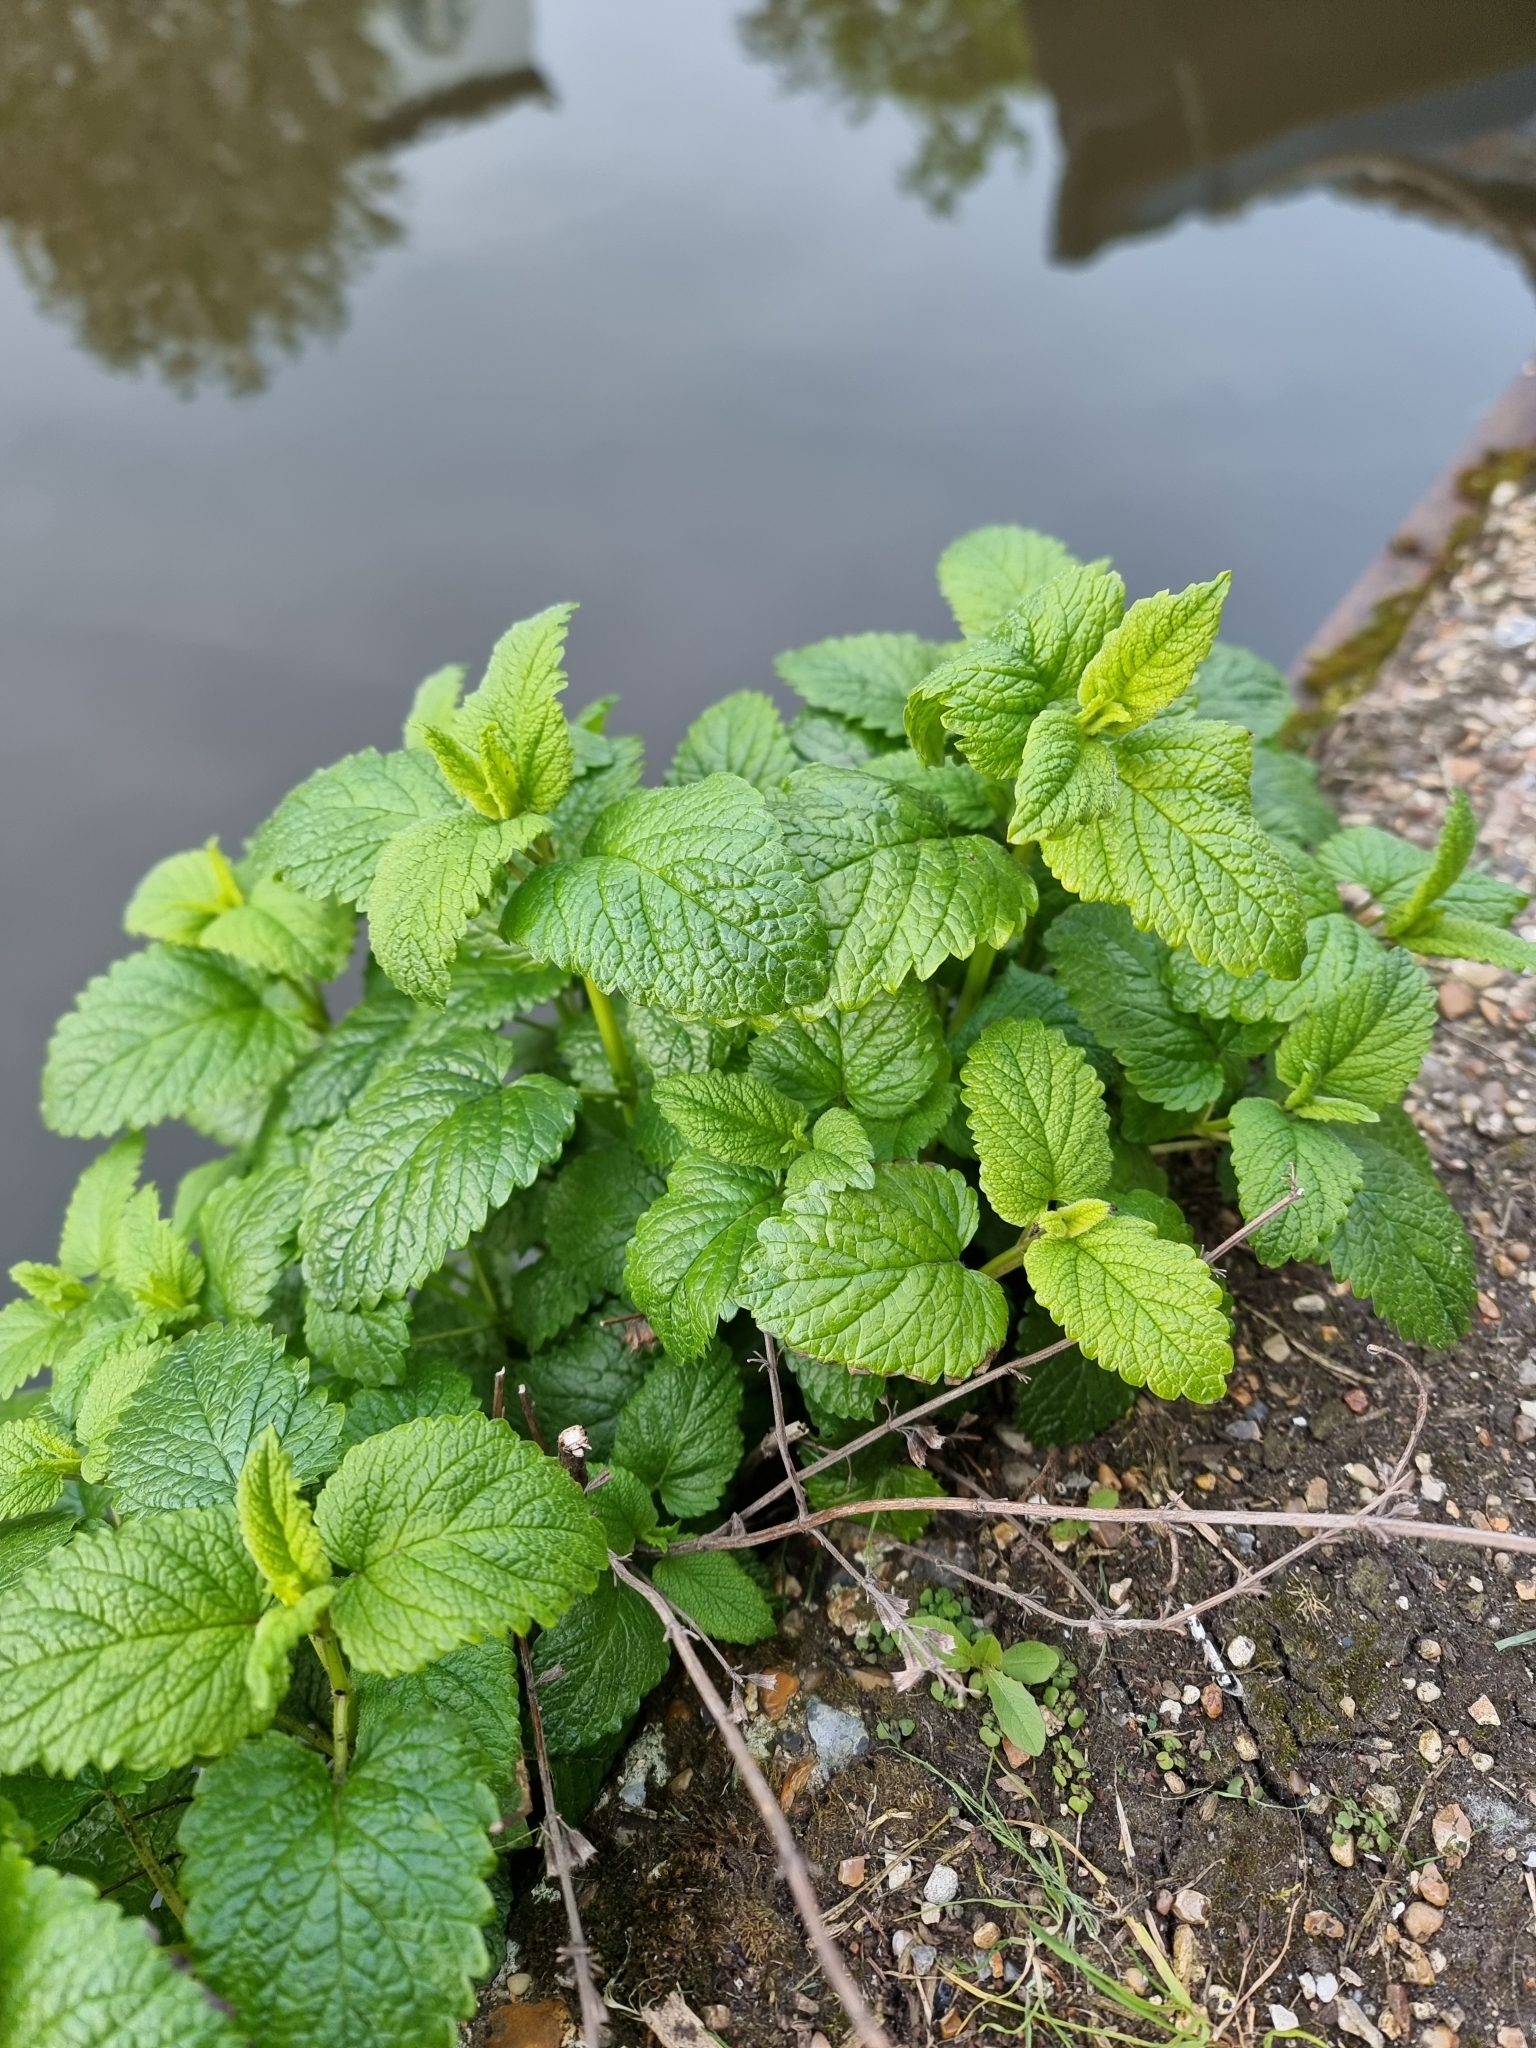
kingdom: Plantae
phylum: Tracheophyta
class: Magnoliopsida
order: Lamiales
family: Lamiaceae
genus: Melissa
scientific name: Melissa officinalis
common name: Balm
